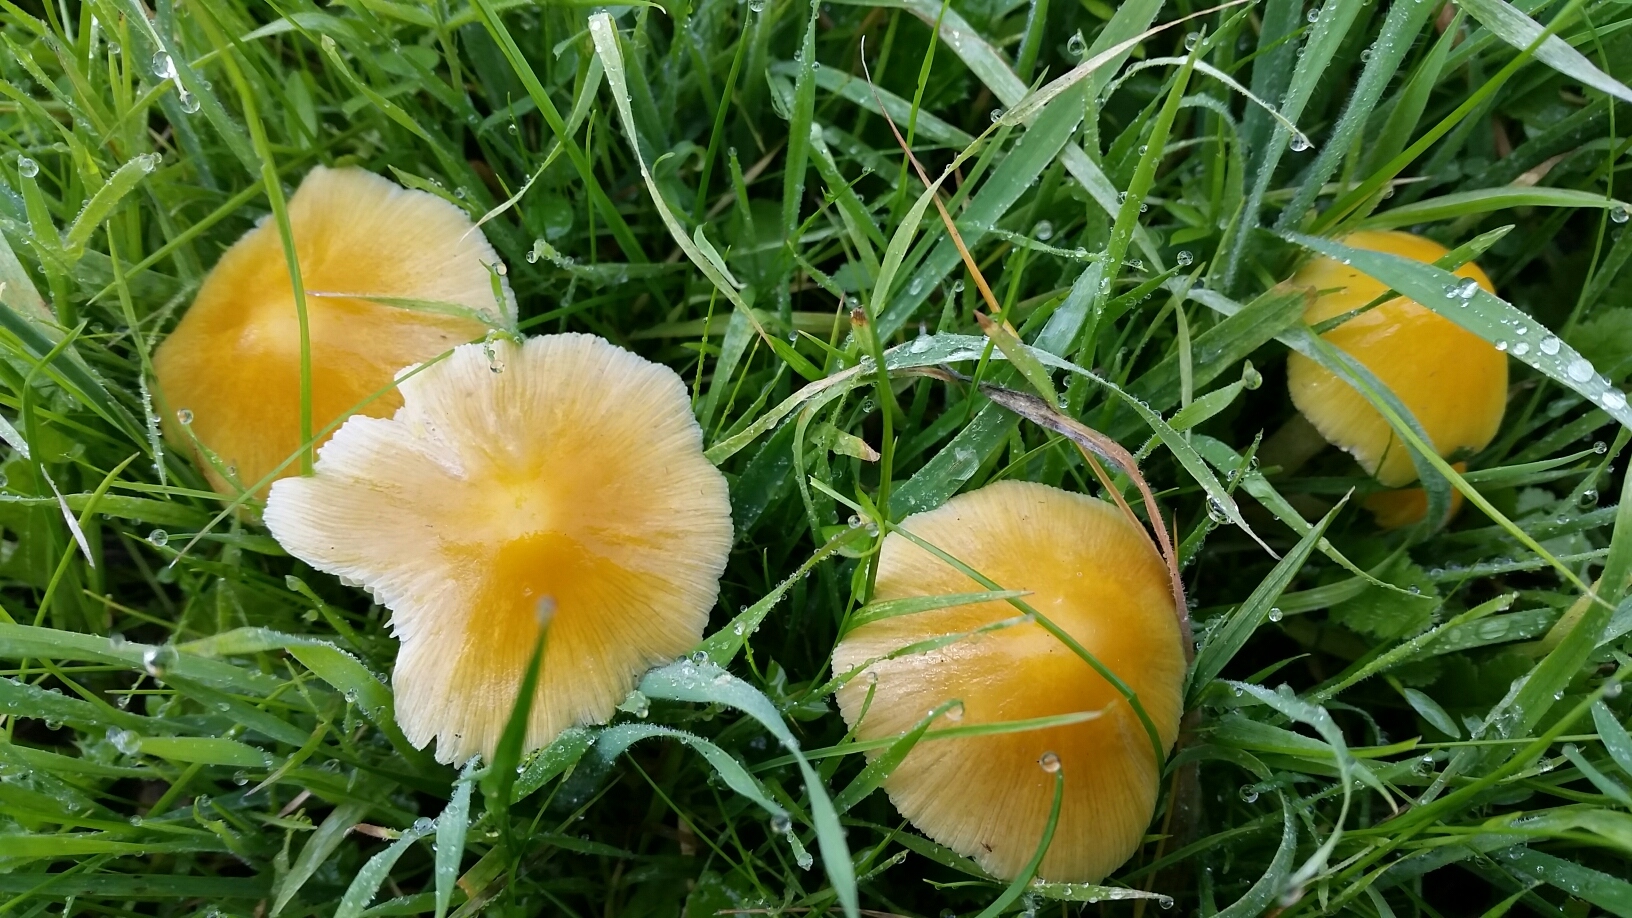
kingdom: Fungi
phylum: Basidiomycota
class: Agaricomycetes
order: Agaricales
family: Bolbitiaceae
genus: Bolbitius
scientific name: Bolbitius titubans
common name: Yellow fieldcap
